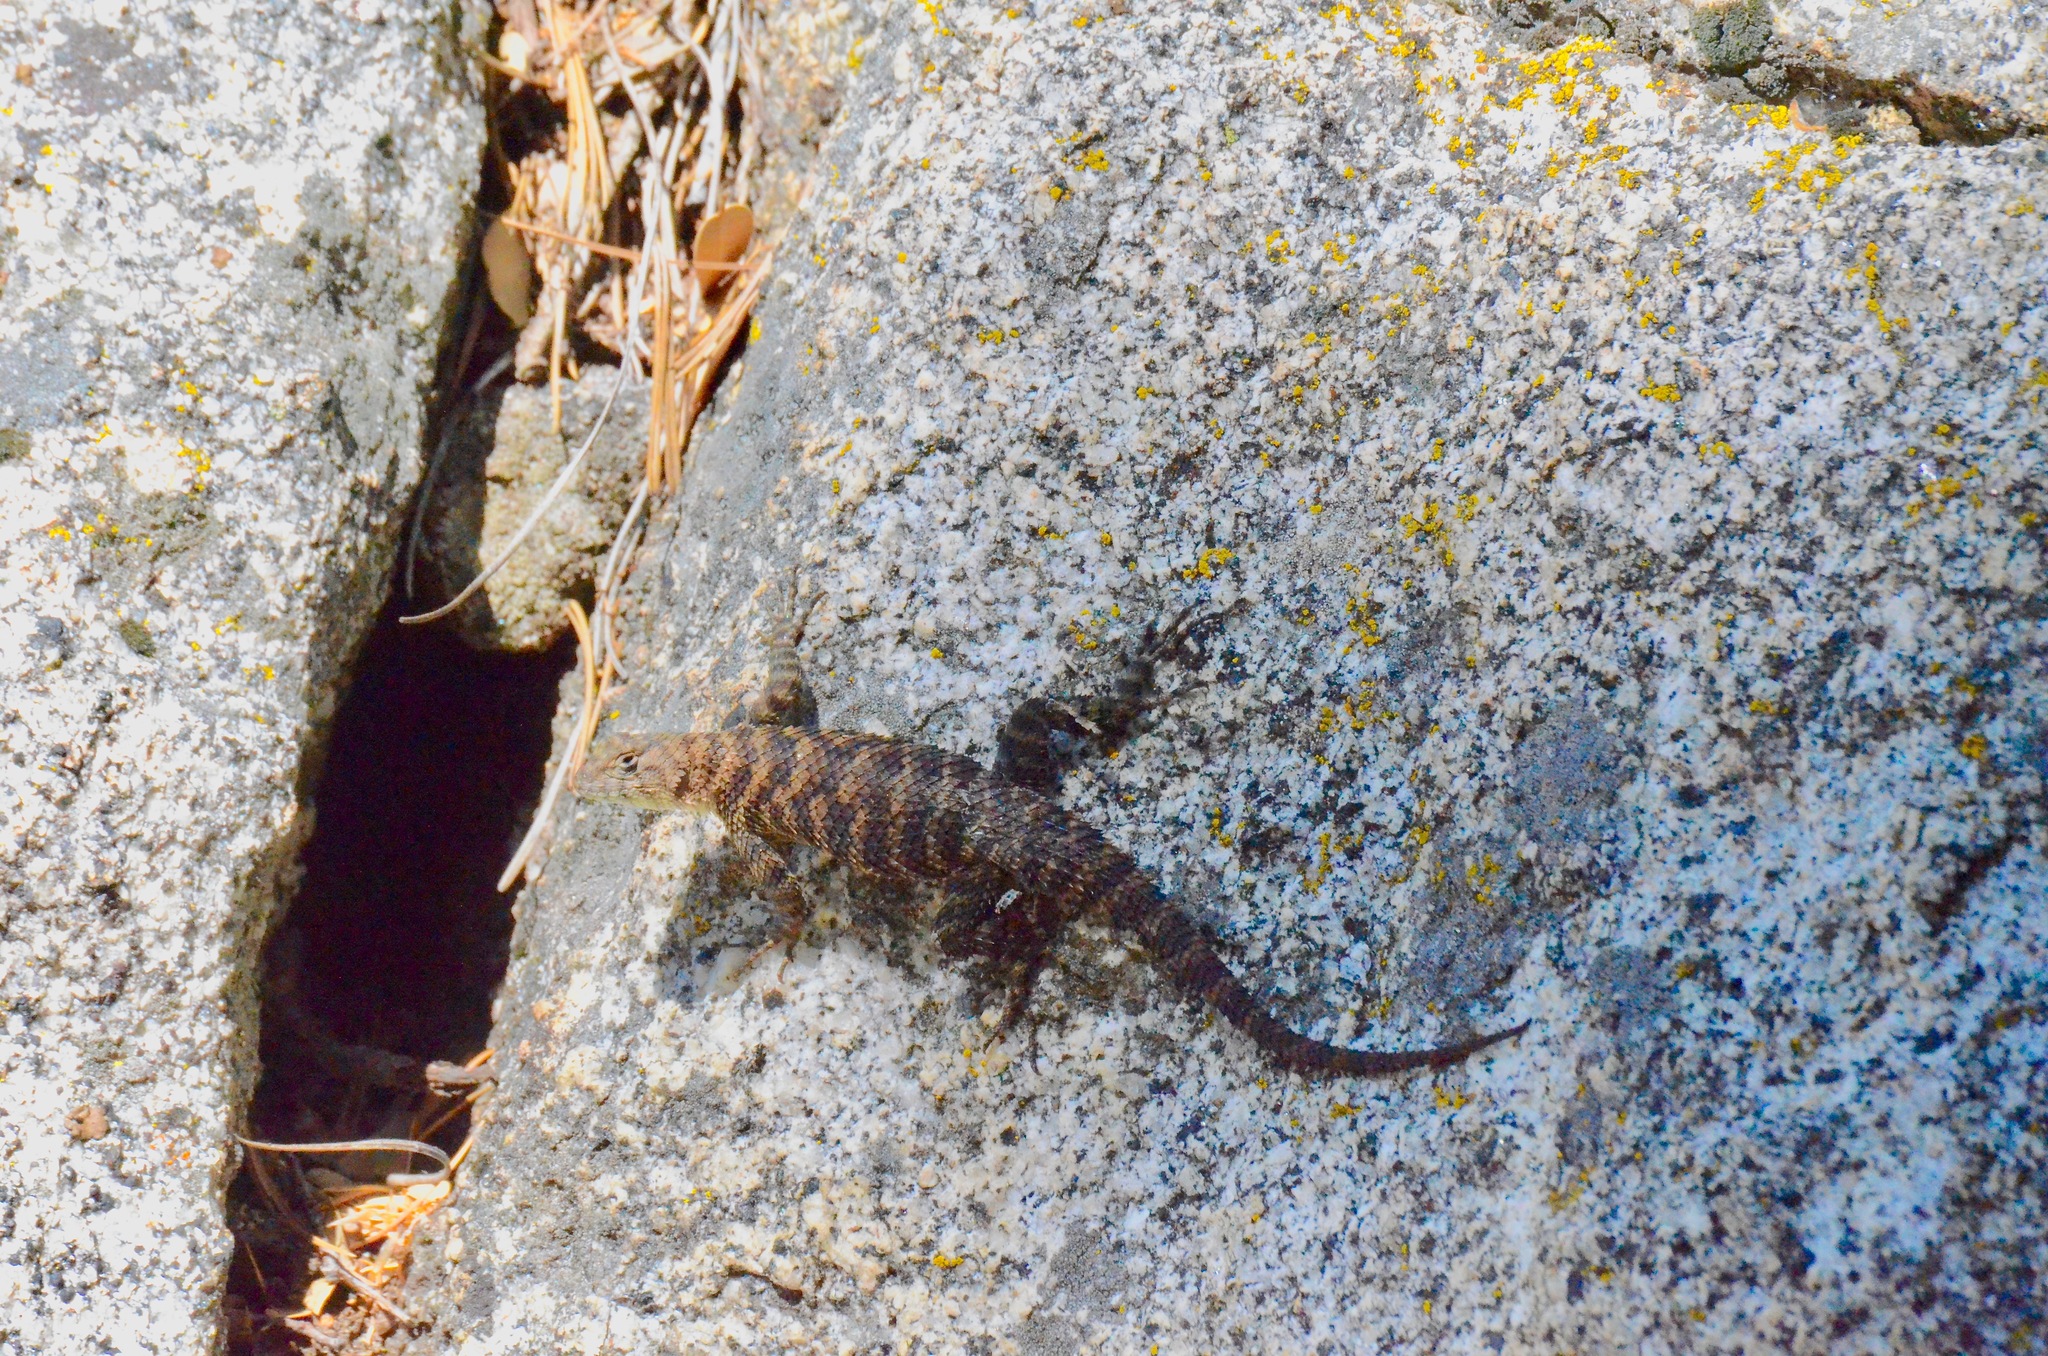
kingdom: Animalia
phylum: Chordata
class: Squamata
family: Phrynosomatidae
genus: Sceloporus
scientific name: Sceloporus orcutti
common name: Granite spiny lizard
